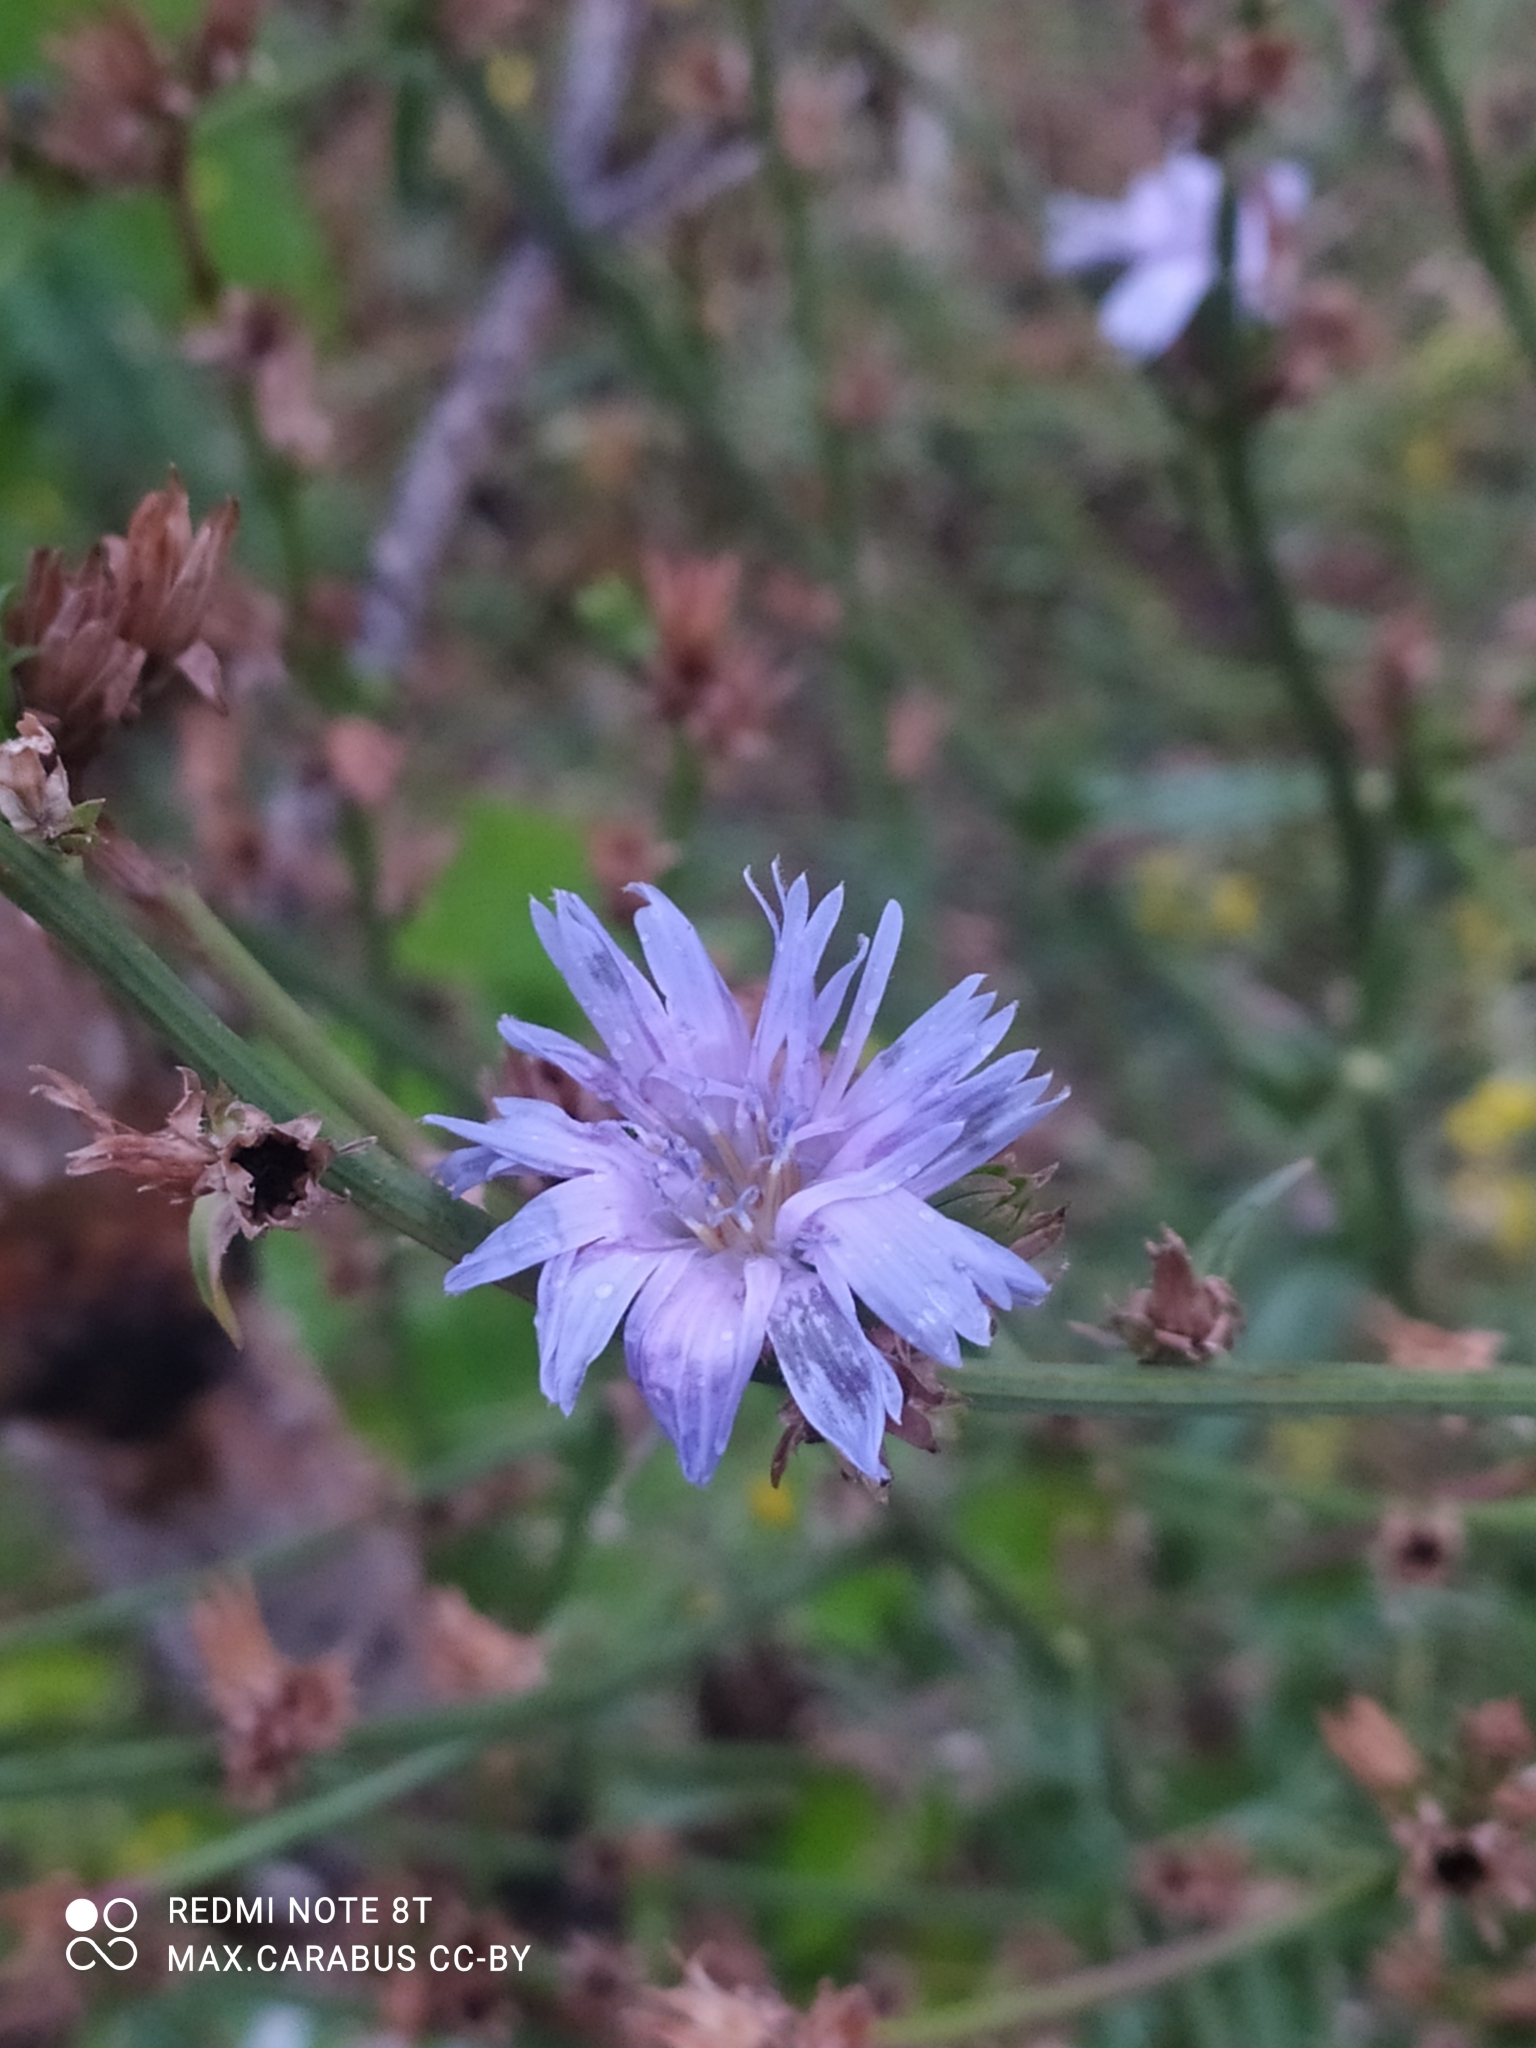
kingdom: Plantae
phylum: Tracheophyta
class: Magnoliopsida
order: Asterales
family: Asteraceae
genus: Cichorium
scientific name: Cichorium intybus
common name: Chicory
